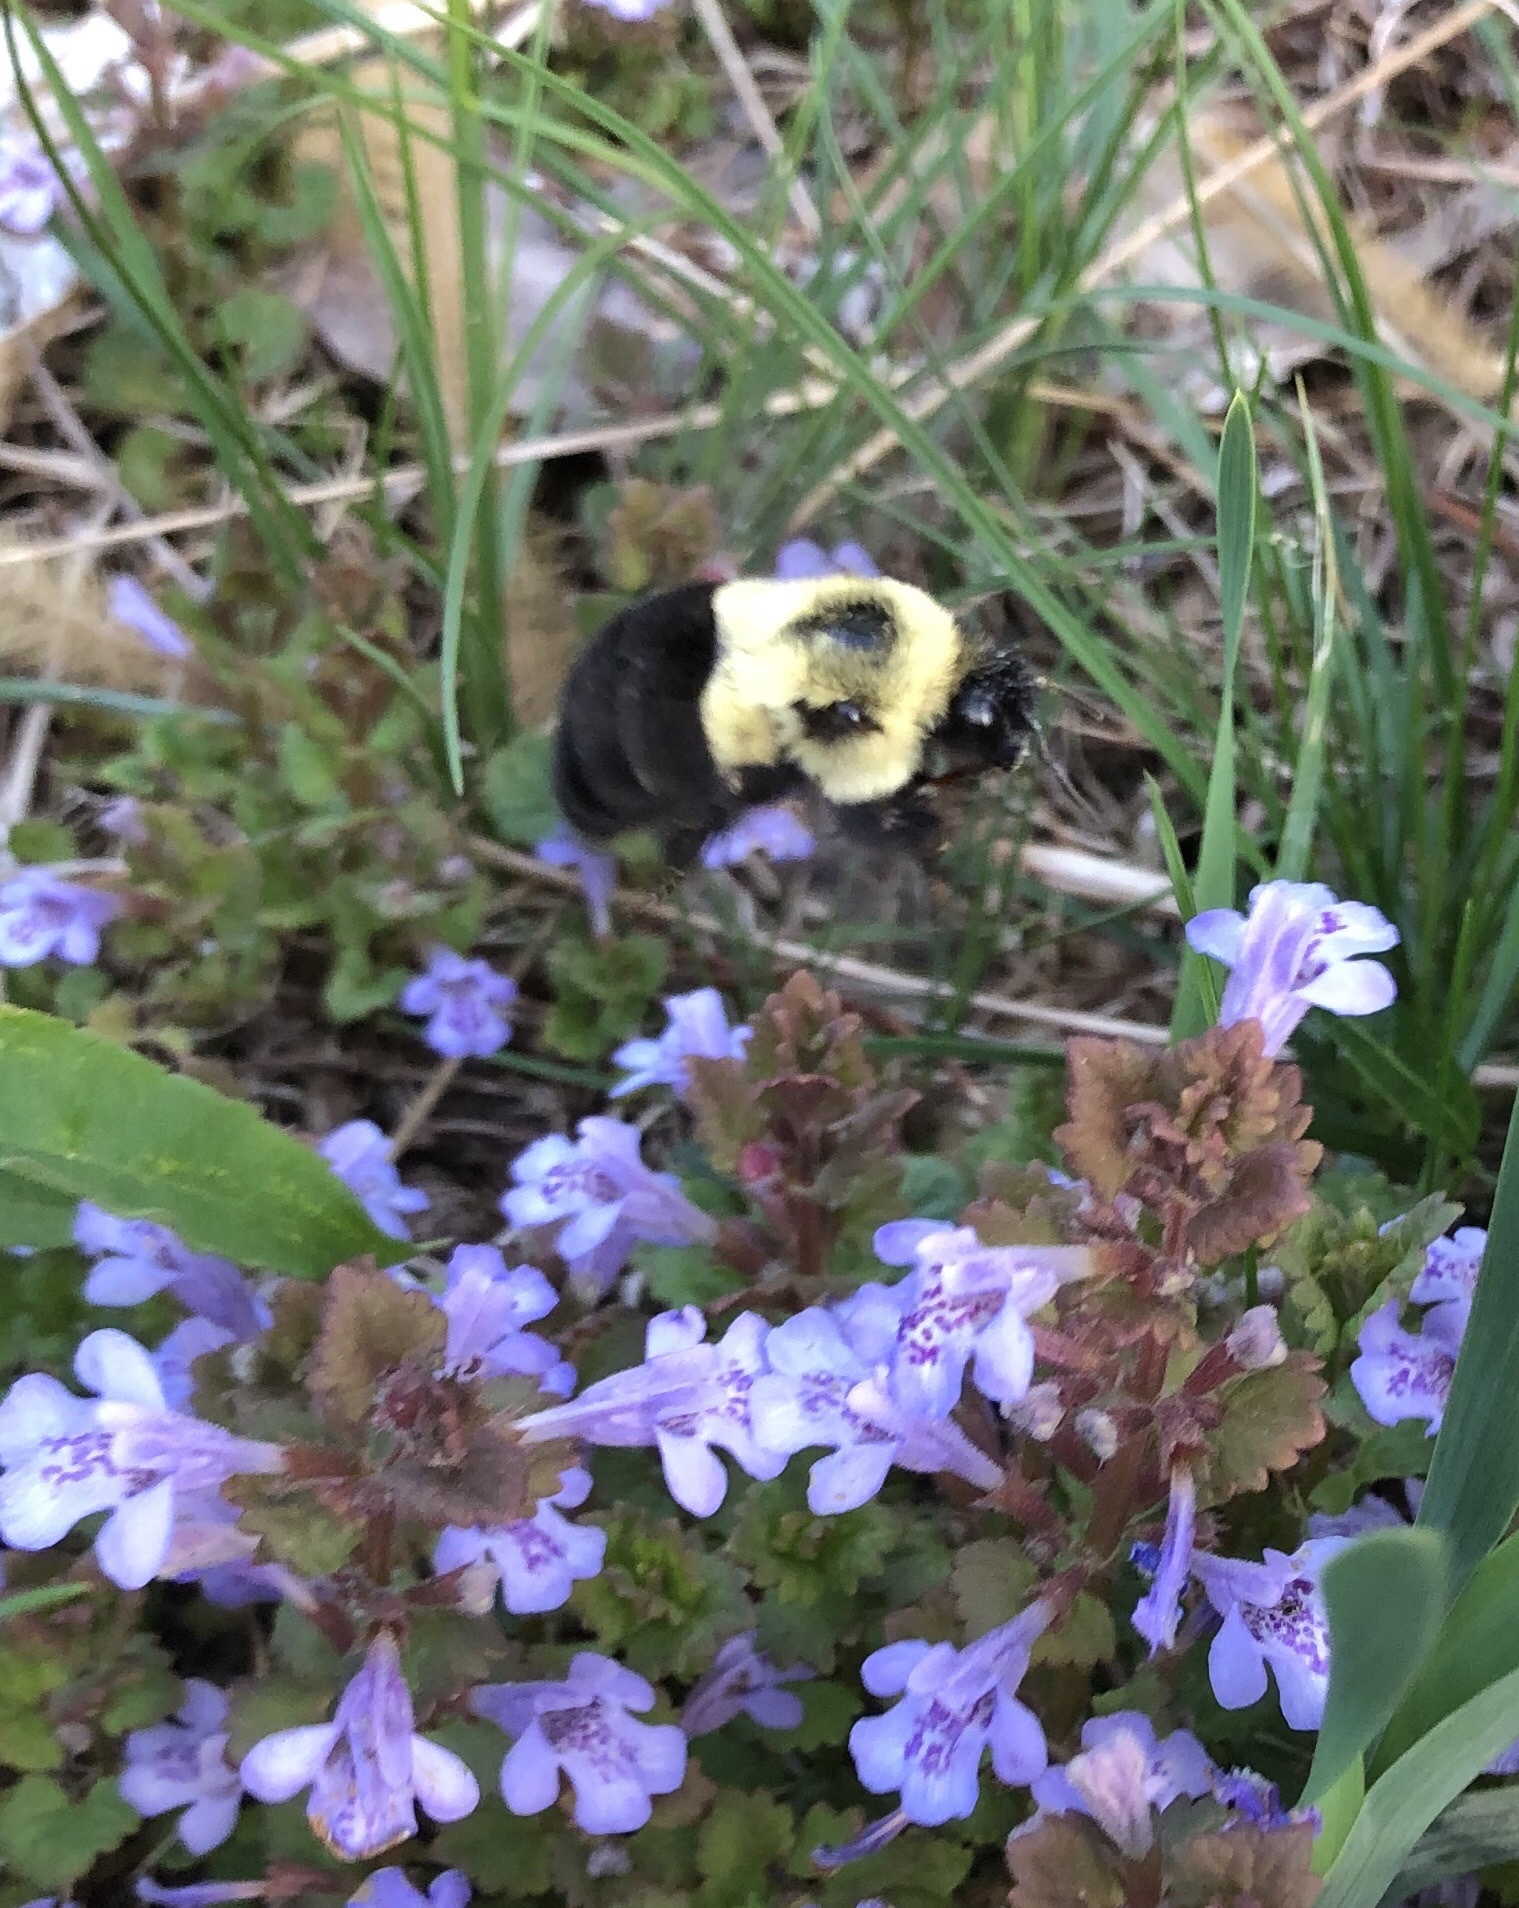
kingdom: Animalia
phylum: Arthropoda
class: Insecta
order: Hymenoptera
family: Apidae
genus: Bombus
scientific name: Bombus impatiens
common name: Common eastern bumble bee
